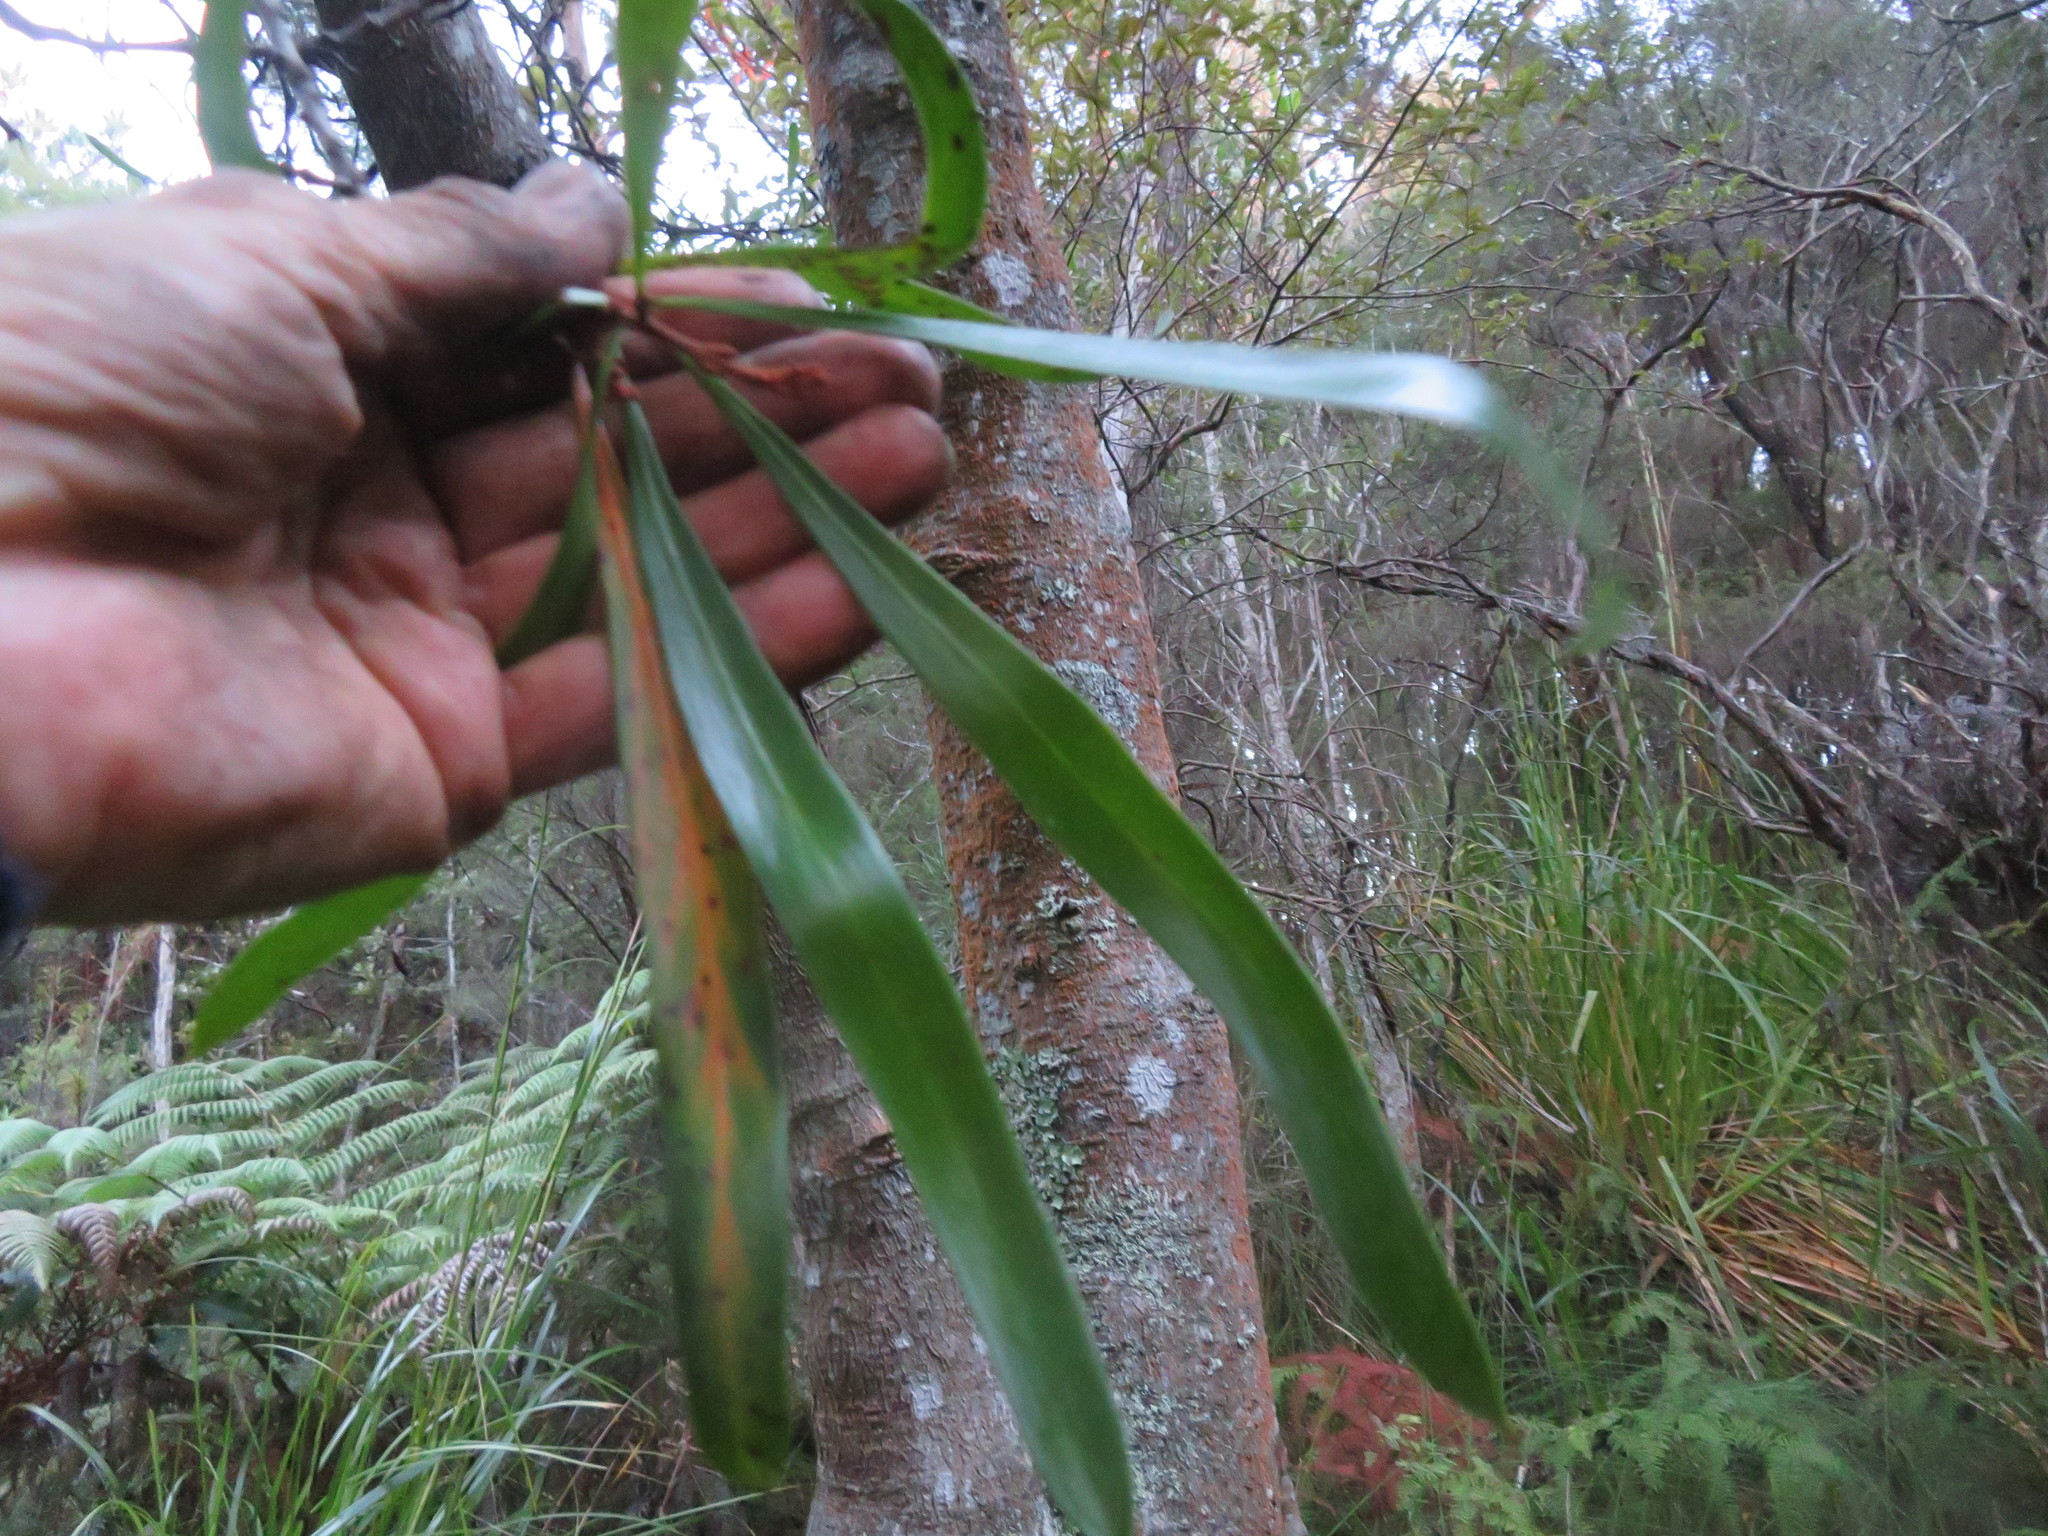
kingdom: Plantae
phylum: Tracheophyta
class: Magnoliopsida
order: Proteales
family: Proteaceae
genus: Toronia
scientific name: Toronia toru
